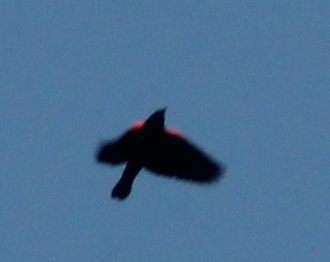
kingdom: Animalia
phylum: Chordata
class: Aves
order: Passeriformes
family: Icteridae
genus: Agelaius
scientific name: Agelaius phoeniceus
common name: Red-winged blackbird
